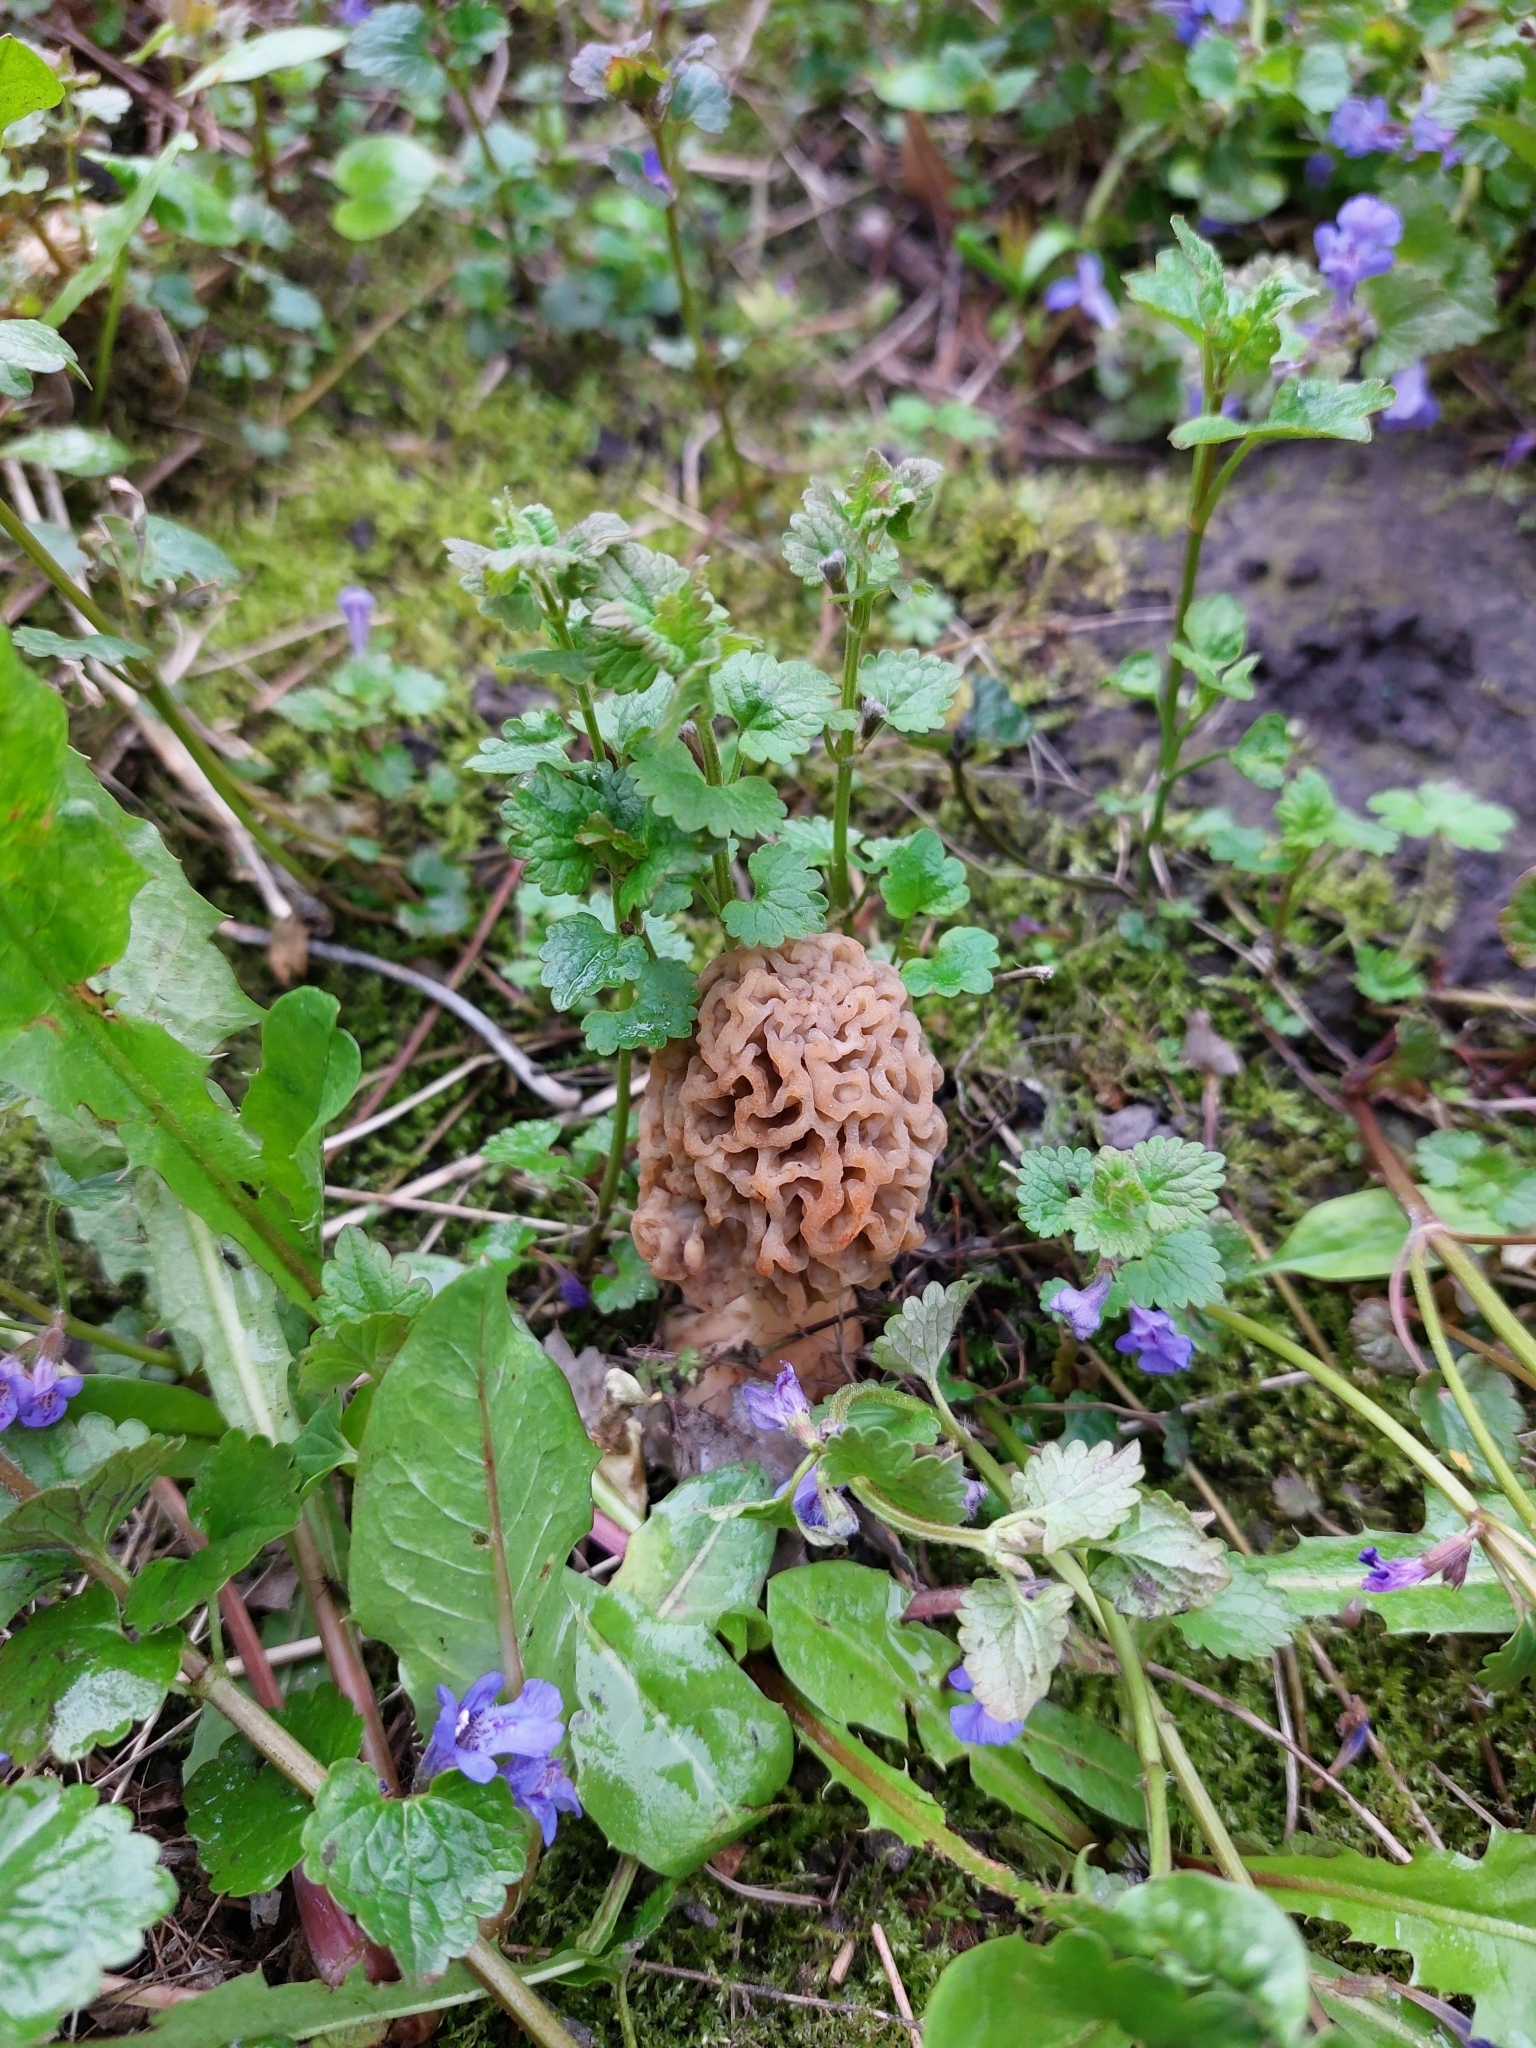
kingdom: Fungi
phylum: Ascomycota
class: Pezizomycetes
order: Pezizales
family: Morchellaceae
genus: Morchella
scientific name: Morchella esculenta
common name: Morel
